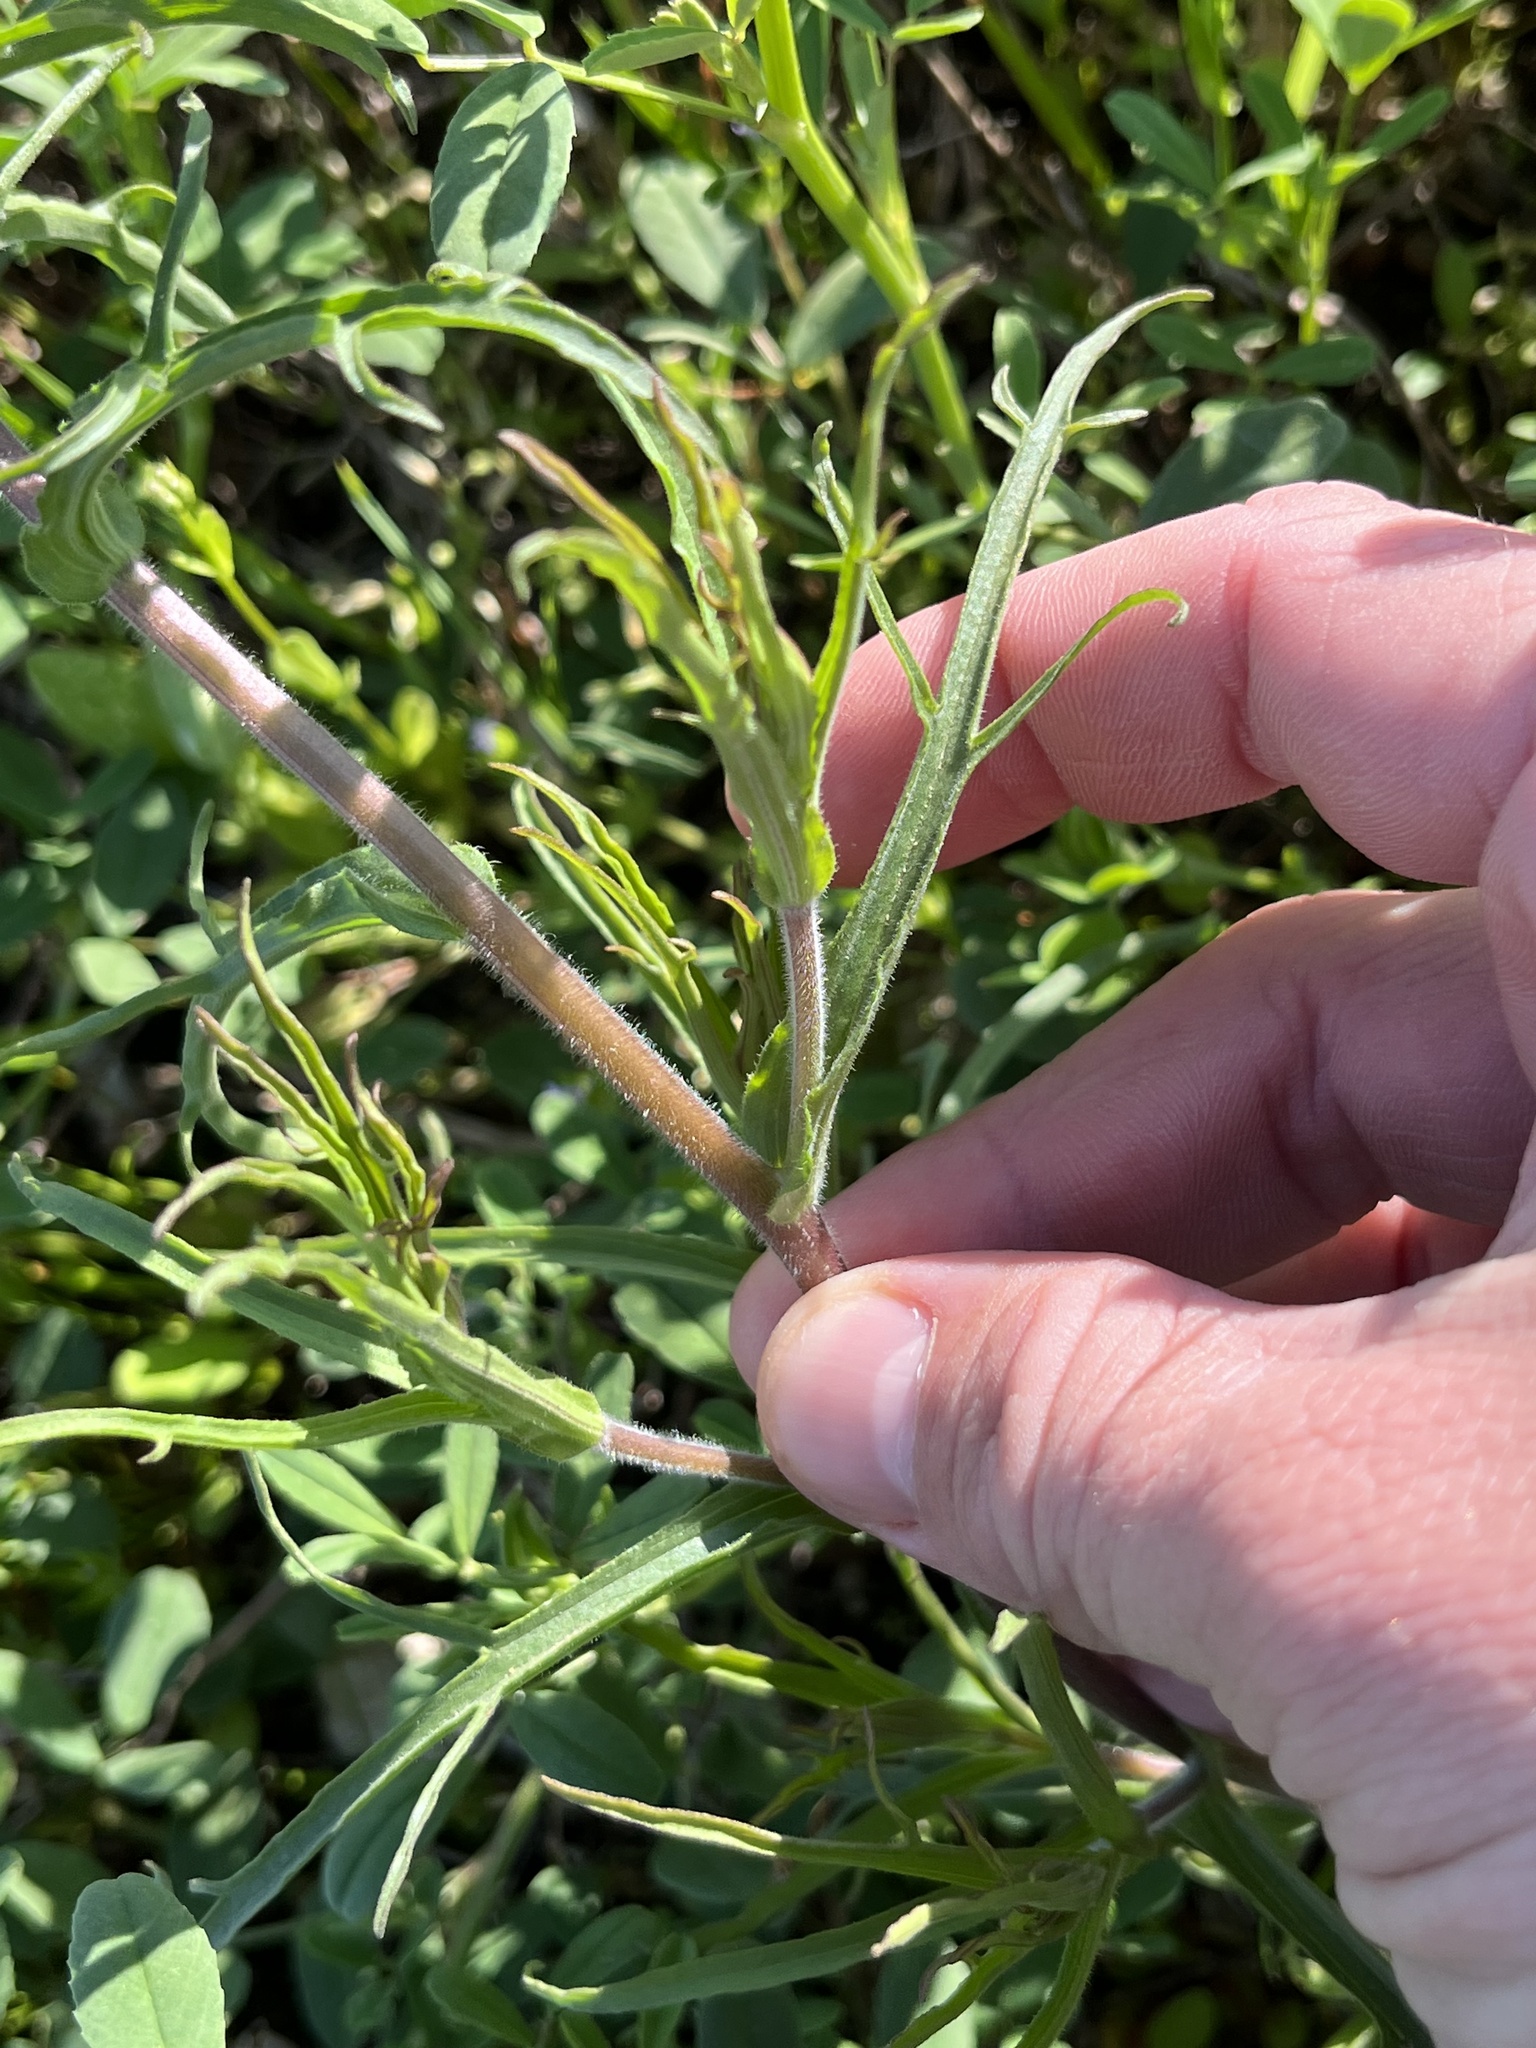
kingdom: Plantae
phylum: Tracheophyta
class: Magnoliopsida
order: Lamiales
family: Orobanchaceae
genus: Castilleja
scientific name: Castilleja indivisa
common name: Texas paintbrush
